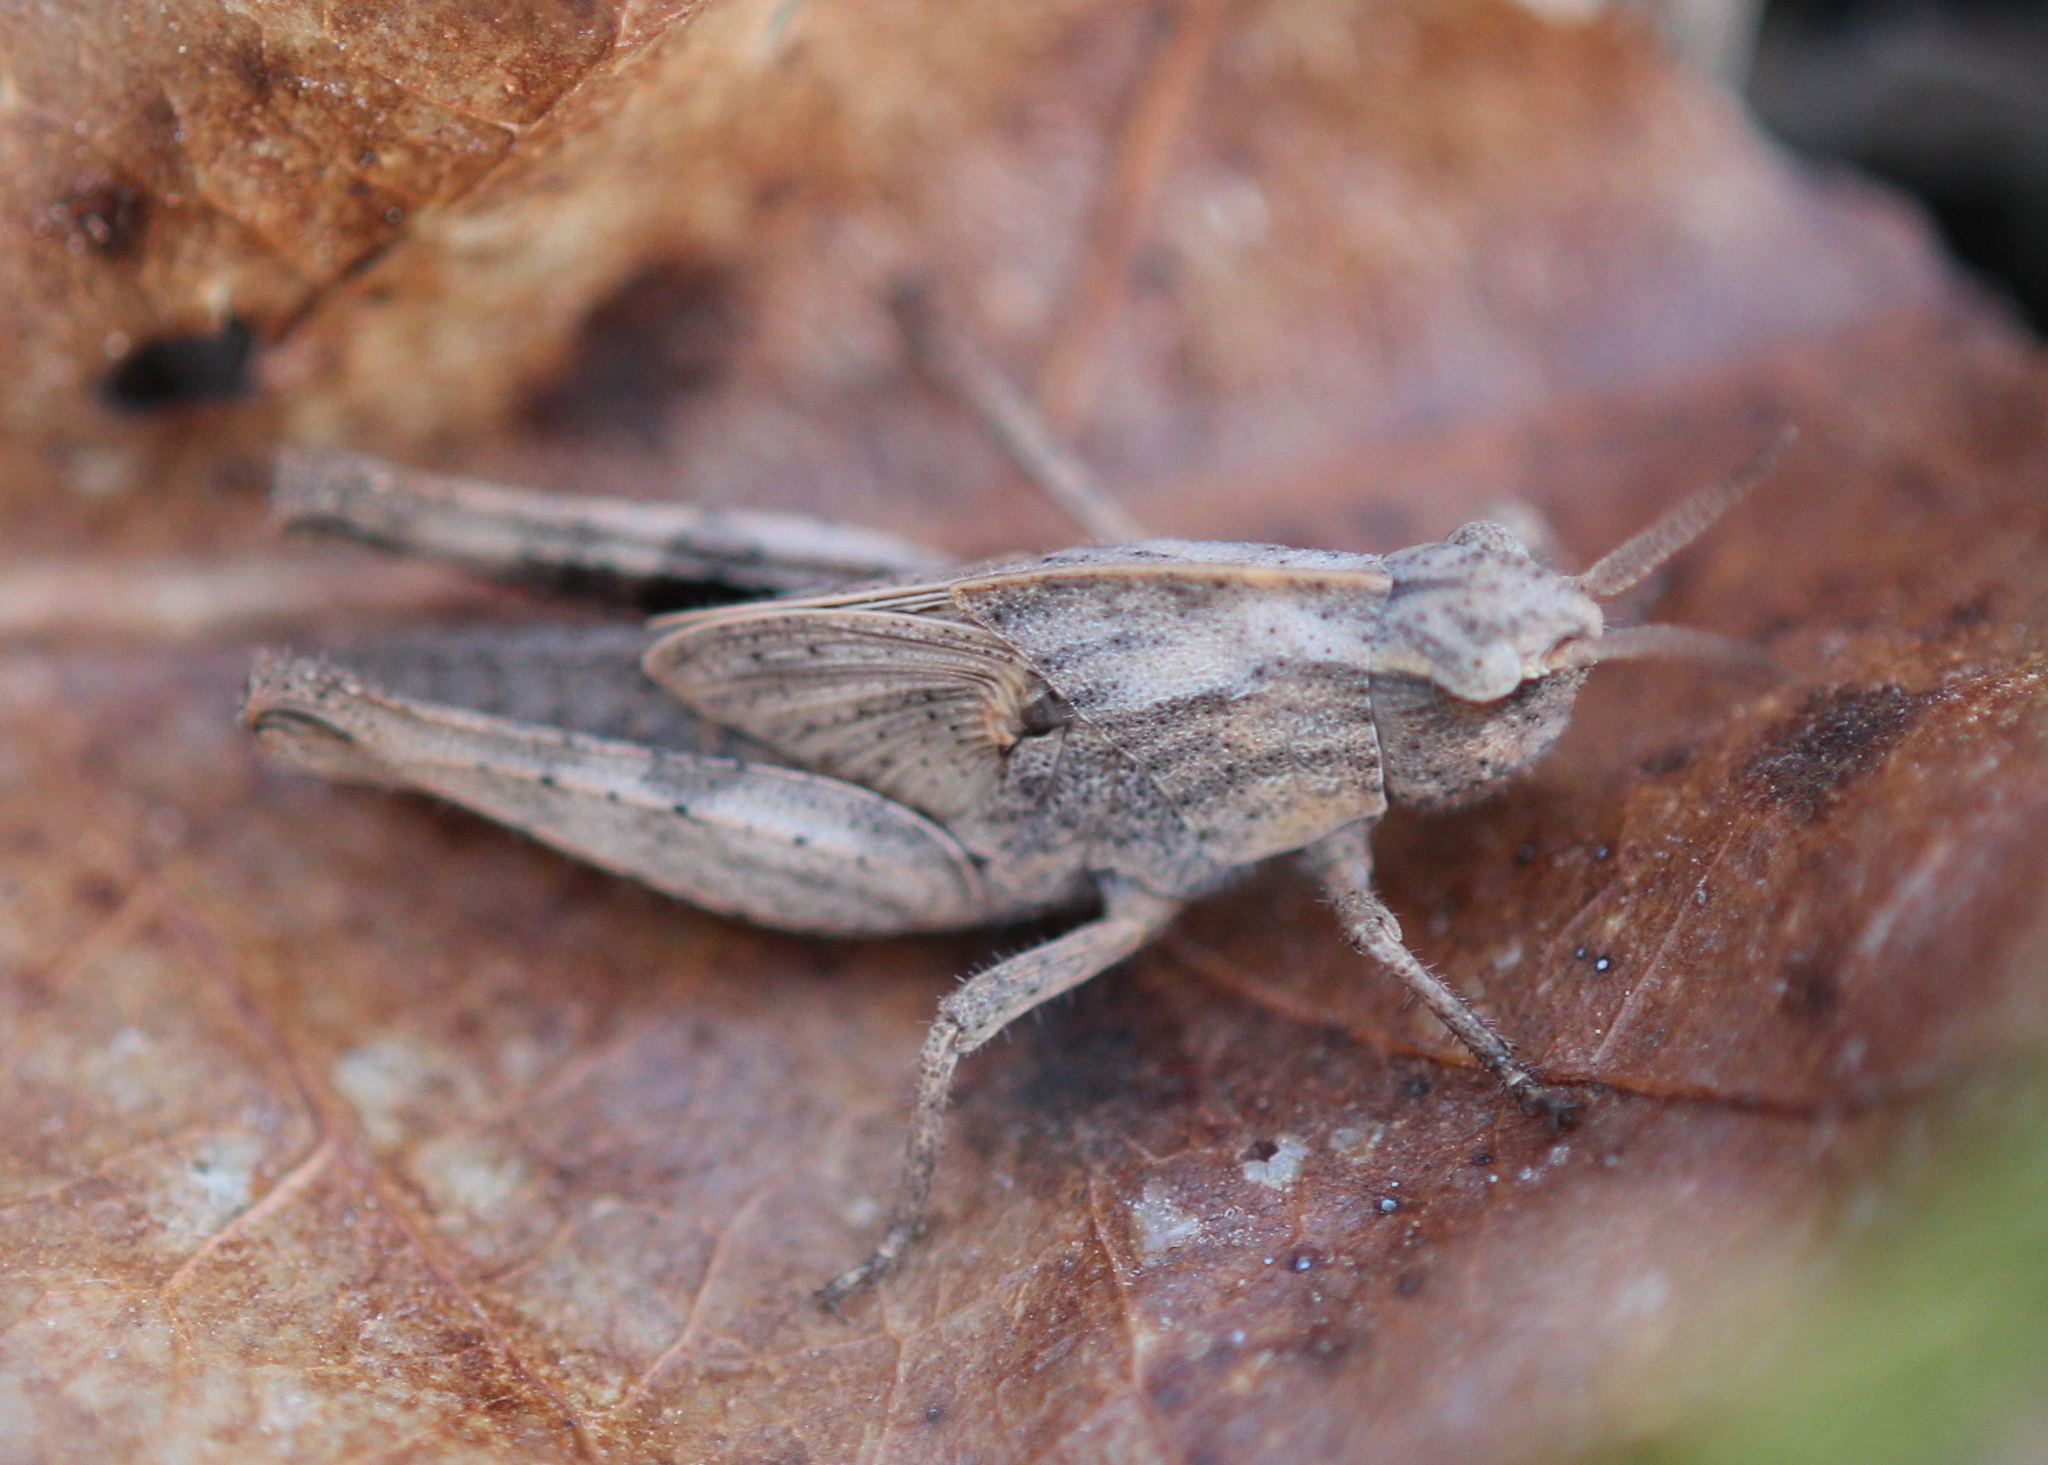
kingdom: Animalia
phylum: Arthropoda
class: Insecta
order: Orthoptera
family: Acrididae
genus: Chortophaga
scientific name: Chortophaga viridifasciata
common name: Green-striped grasshopper
